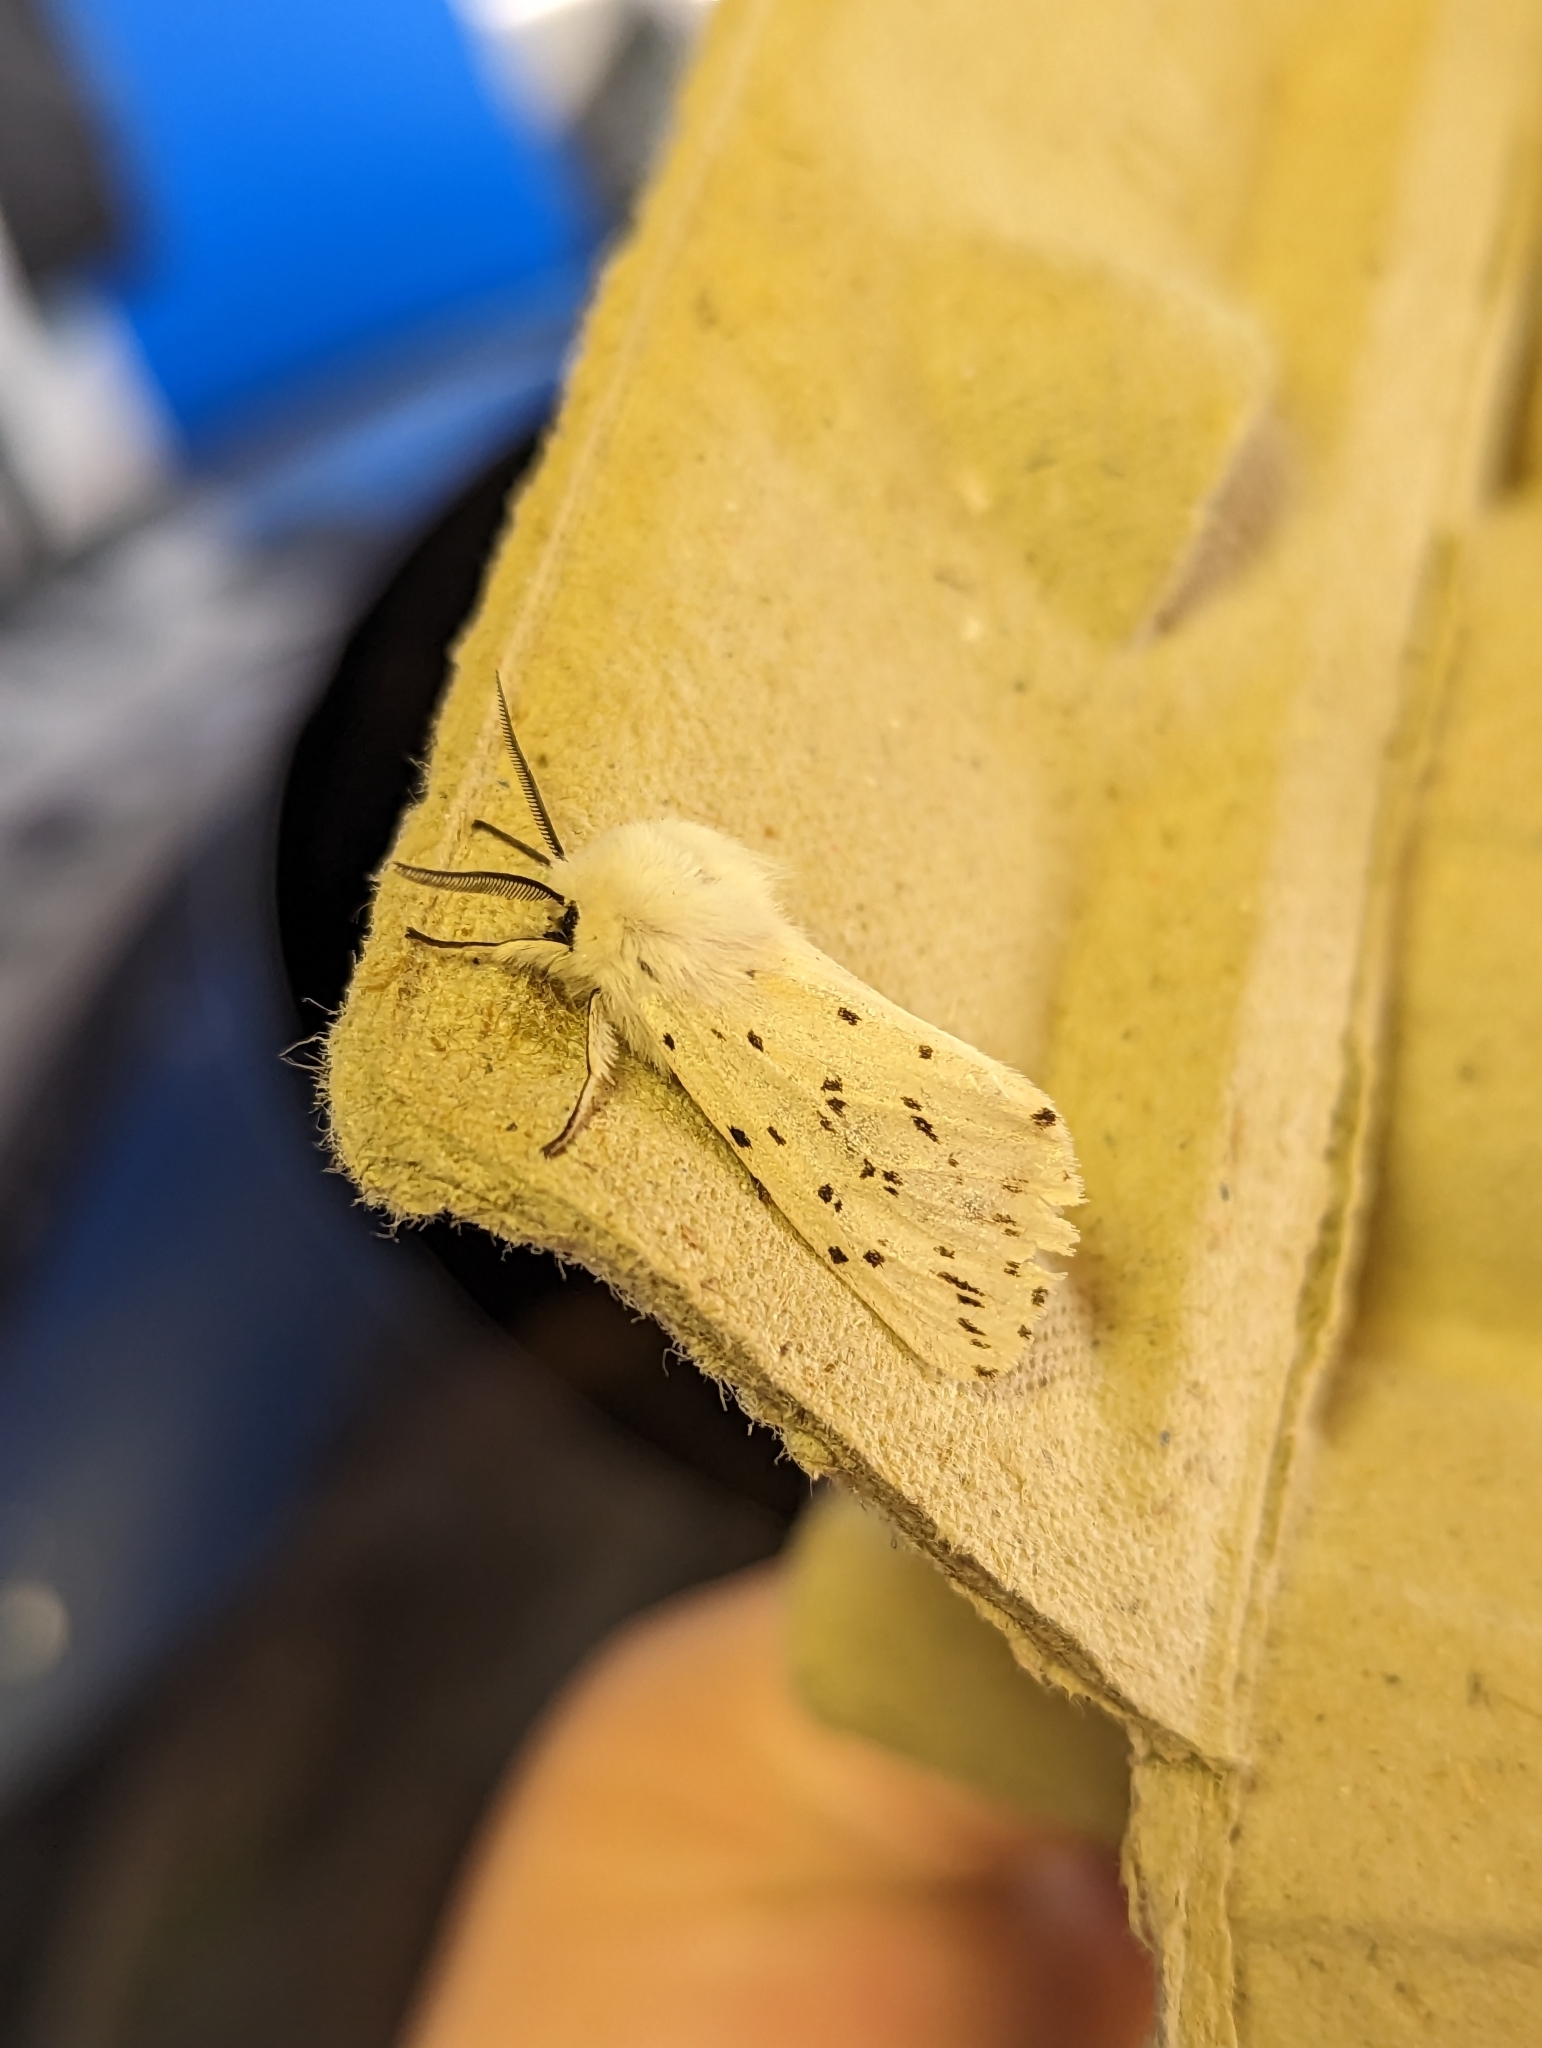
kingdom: Animalia
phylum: Arthropoda
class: Insecta
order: Lepidoptera
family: Erebidae
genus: Spilosoma
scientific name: Spilosoma lubricipeda
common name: White ermine
